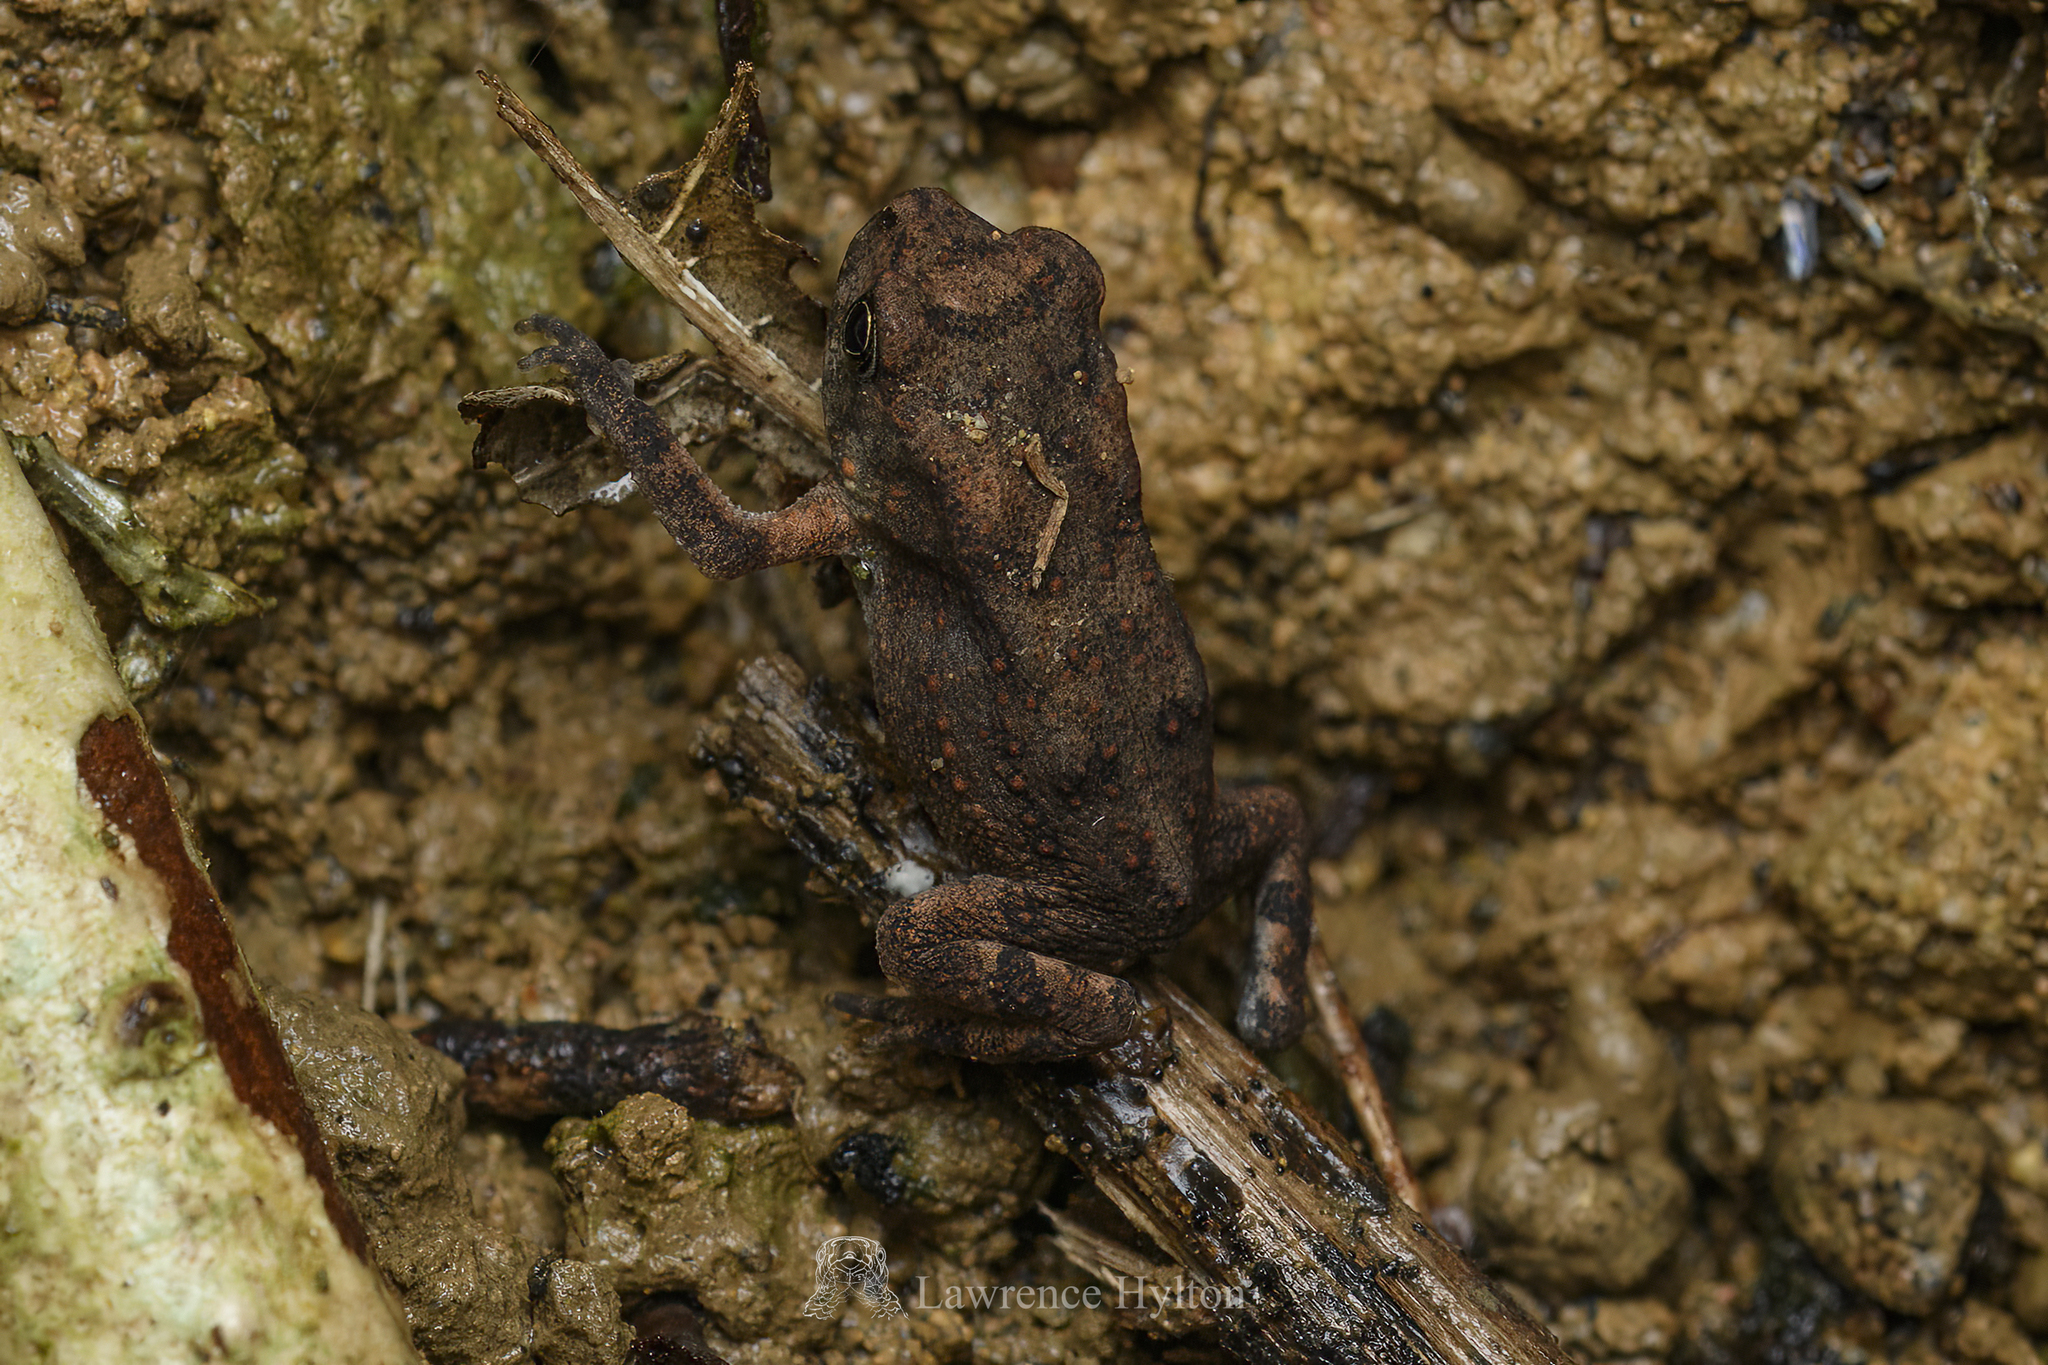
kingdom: Animalia
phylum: Chordata
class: Amphibia
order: Anura
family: Bufonidae
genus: Duttaphrynus
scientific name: Duttaphrynus melanostictus
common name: Common sunda toad
